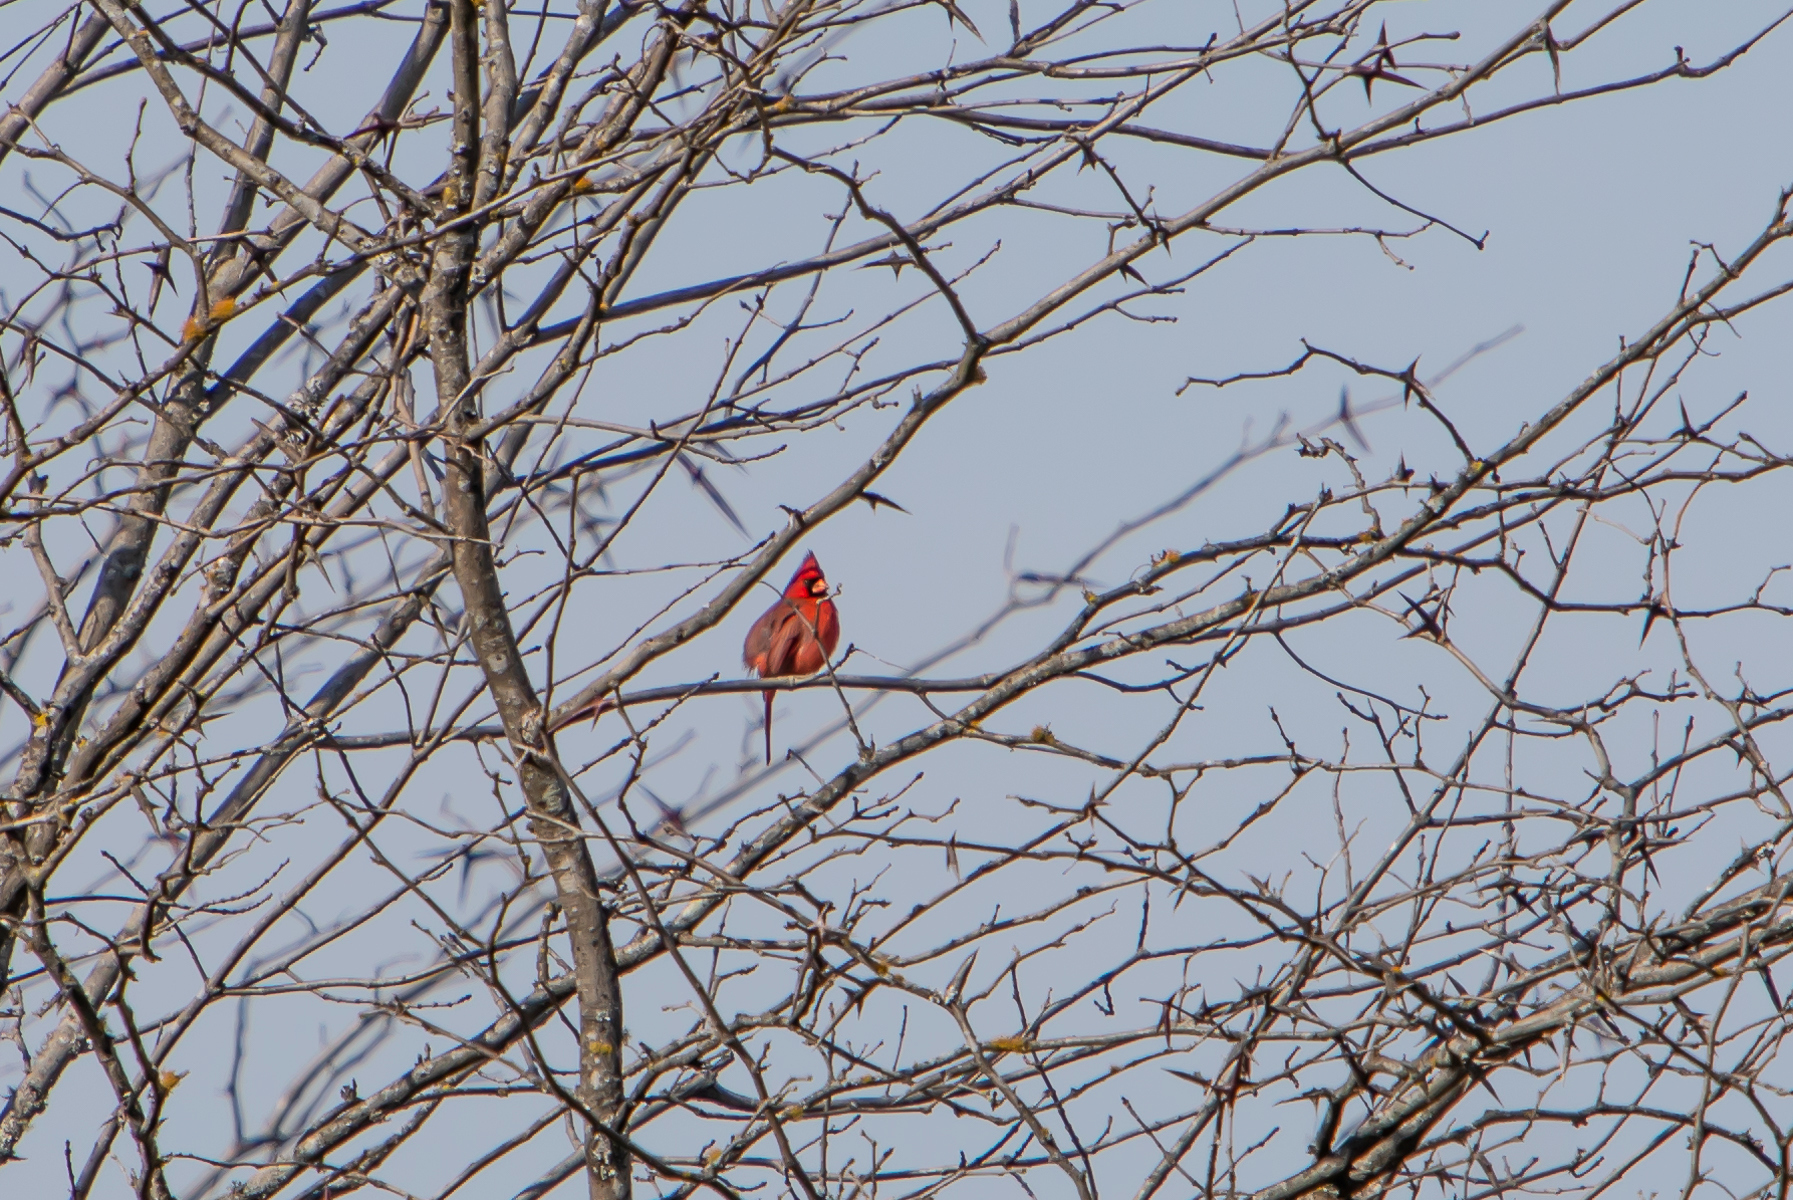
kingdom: Animalia
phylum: Chordata
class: Aves
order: Passeriformes
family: Cardinalidae
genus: Cardinalis
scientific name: Cardinalis cardinalis
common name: Northern cardinal
